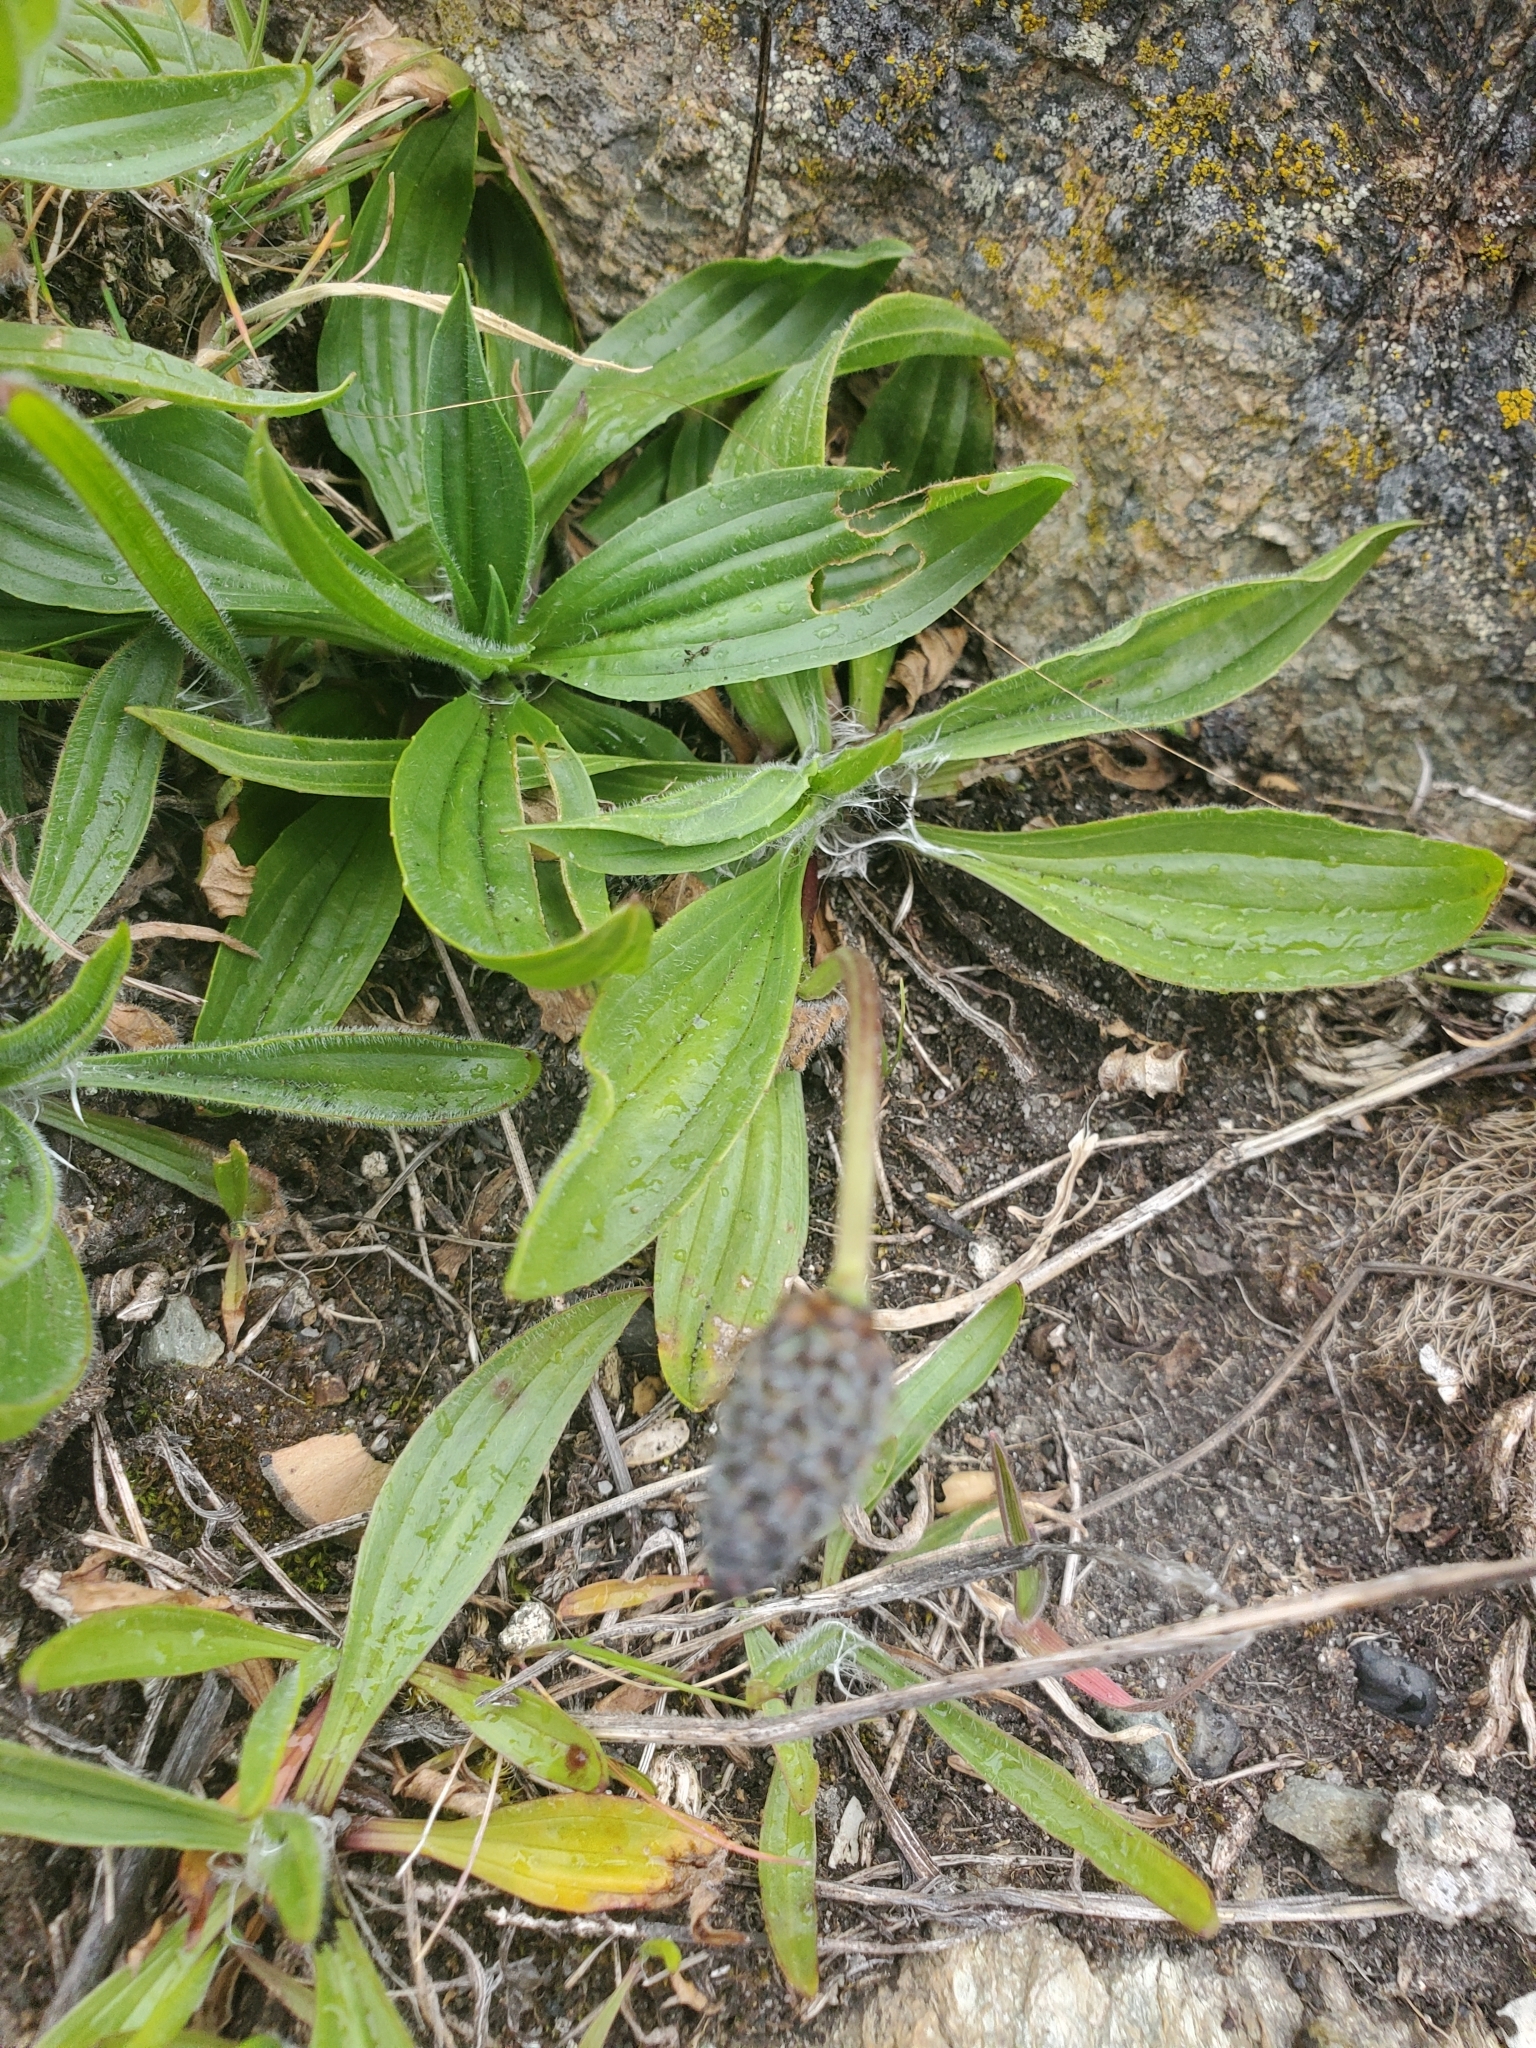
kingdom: Plantae
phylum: Tracheophyta
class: Magnoliopsida
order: Lamiales
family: Plantaginaceae
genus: Plantago
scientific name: Plantago lanceolata
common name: Ribwort plantain
